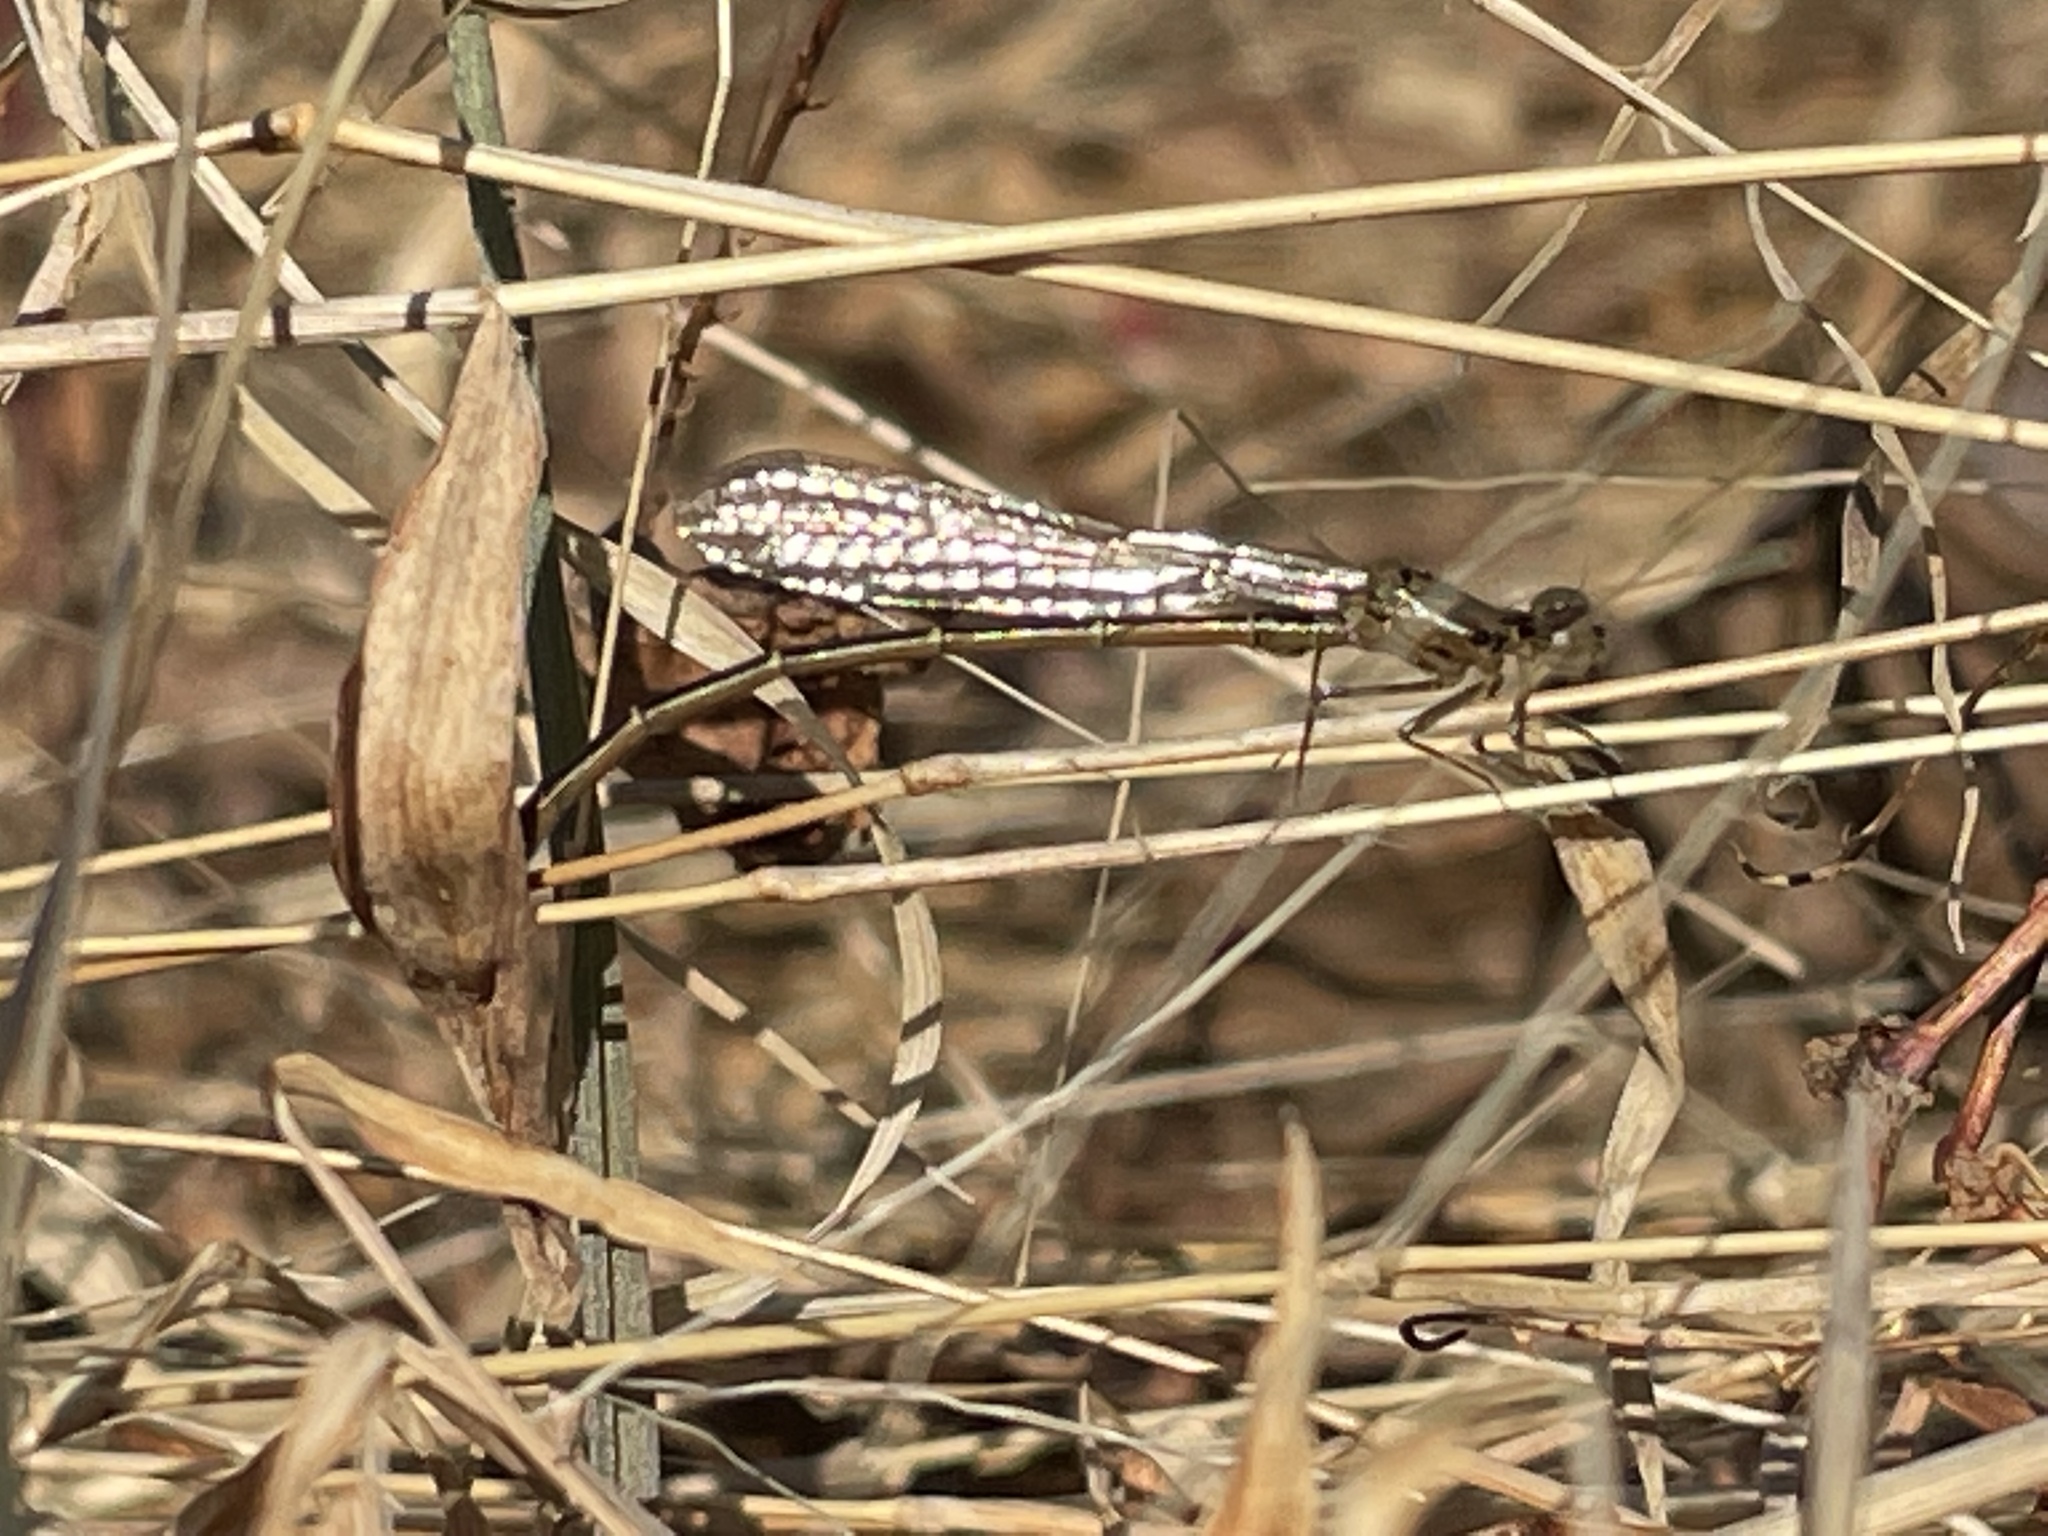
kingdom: Animalia
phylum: Arthropoda
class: Insecta
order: Odonata
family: Coenagrionidae
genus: Ischnura
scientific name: Ischnura posita
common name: Fragile forktail
